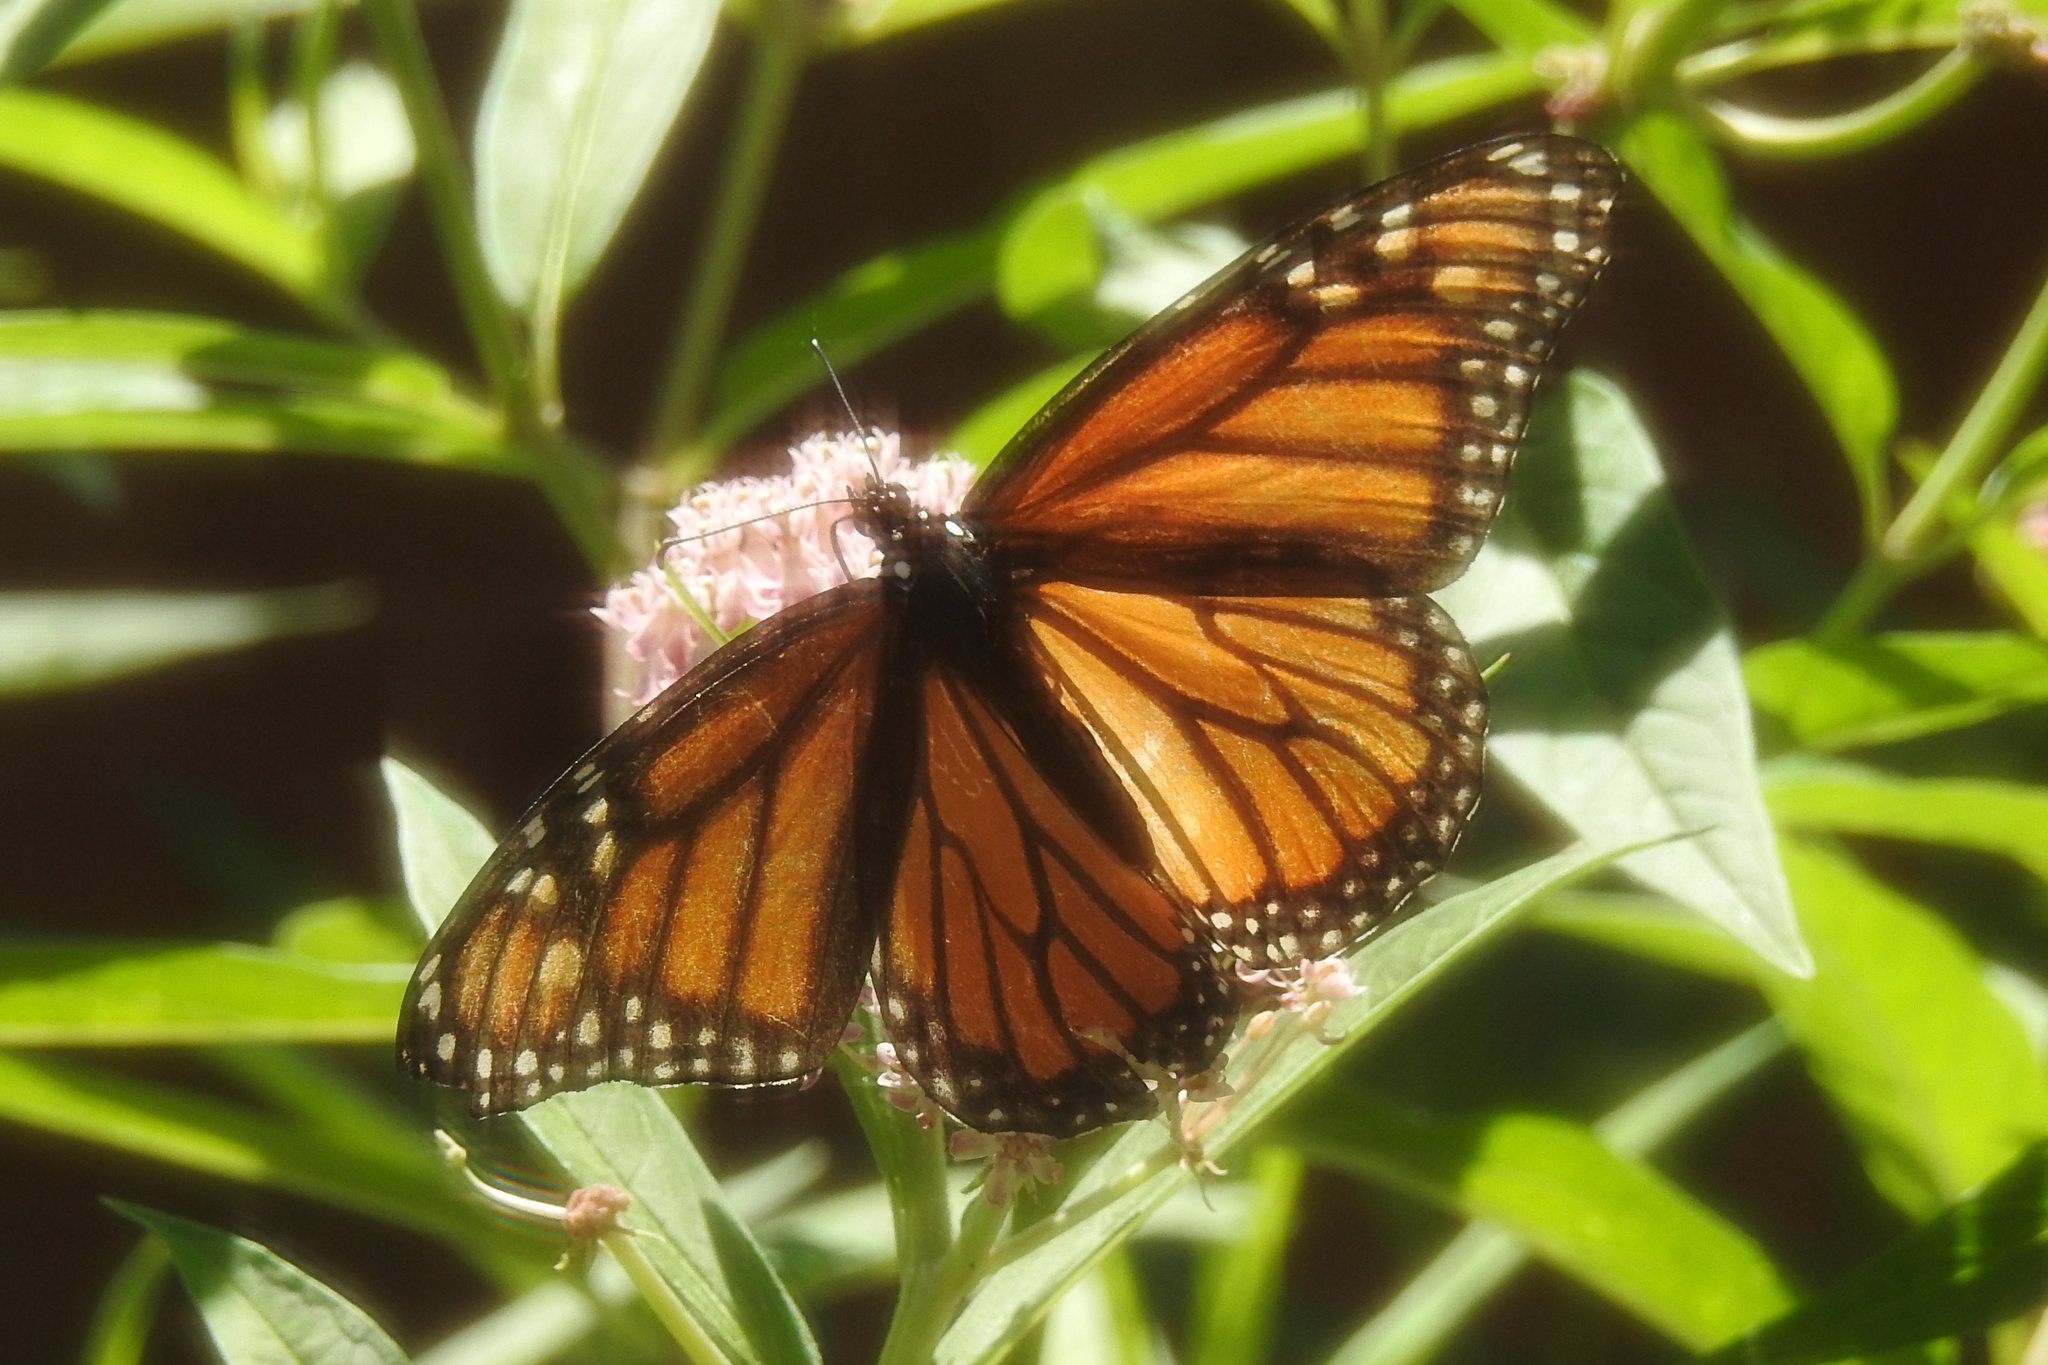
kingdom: Animalia
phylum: Arthropoda
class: Insecta
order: Lepidoptera
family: Nymphalidae
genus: Danaus
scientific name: Danaus plexippus
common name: Monarch
